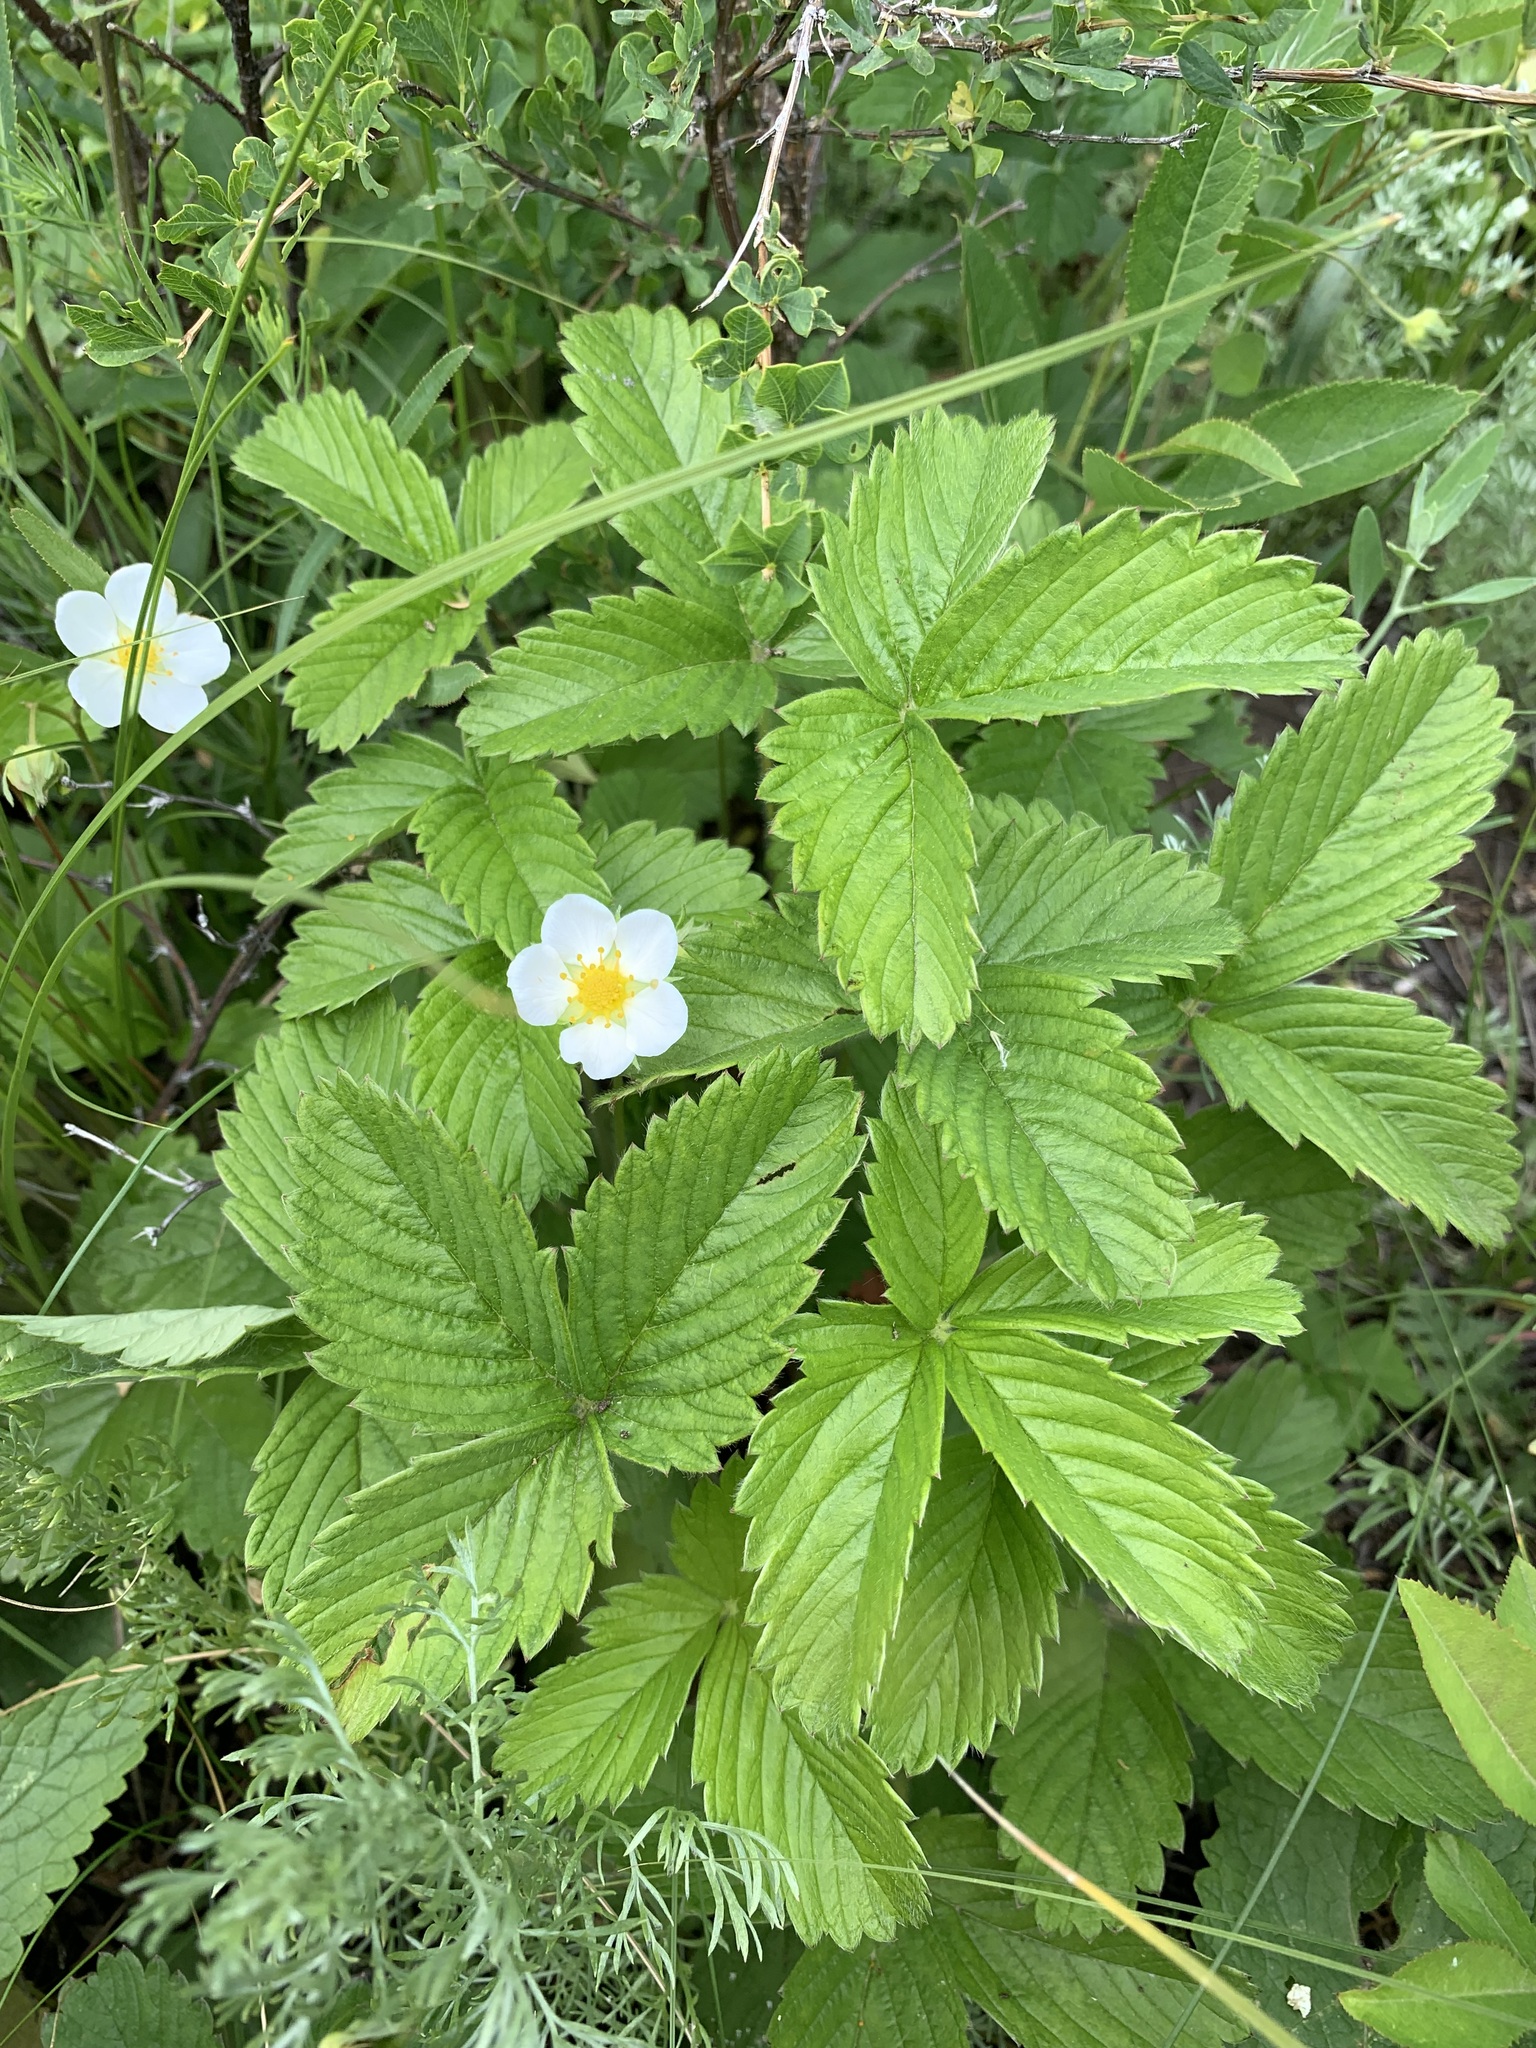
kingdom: Plantae
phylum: Tracheophyta
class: Magnoliopsida
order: Rosales
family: Rosaceae
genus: Fragaria
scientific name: Fragaria viridis
